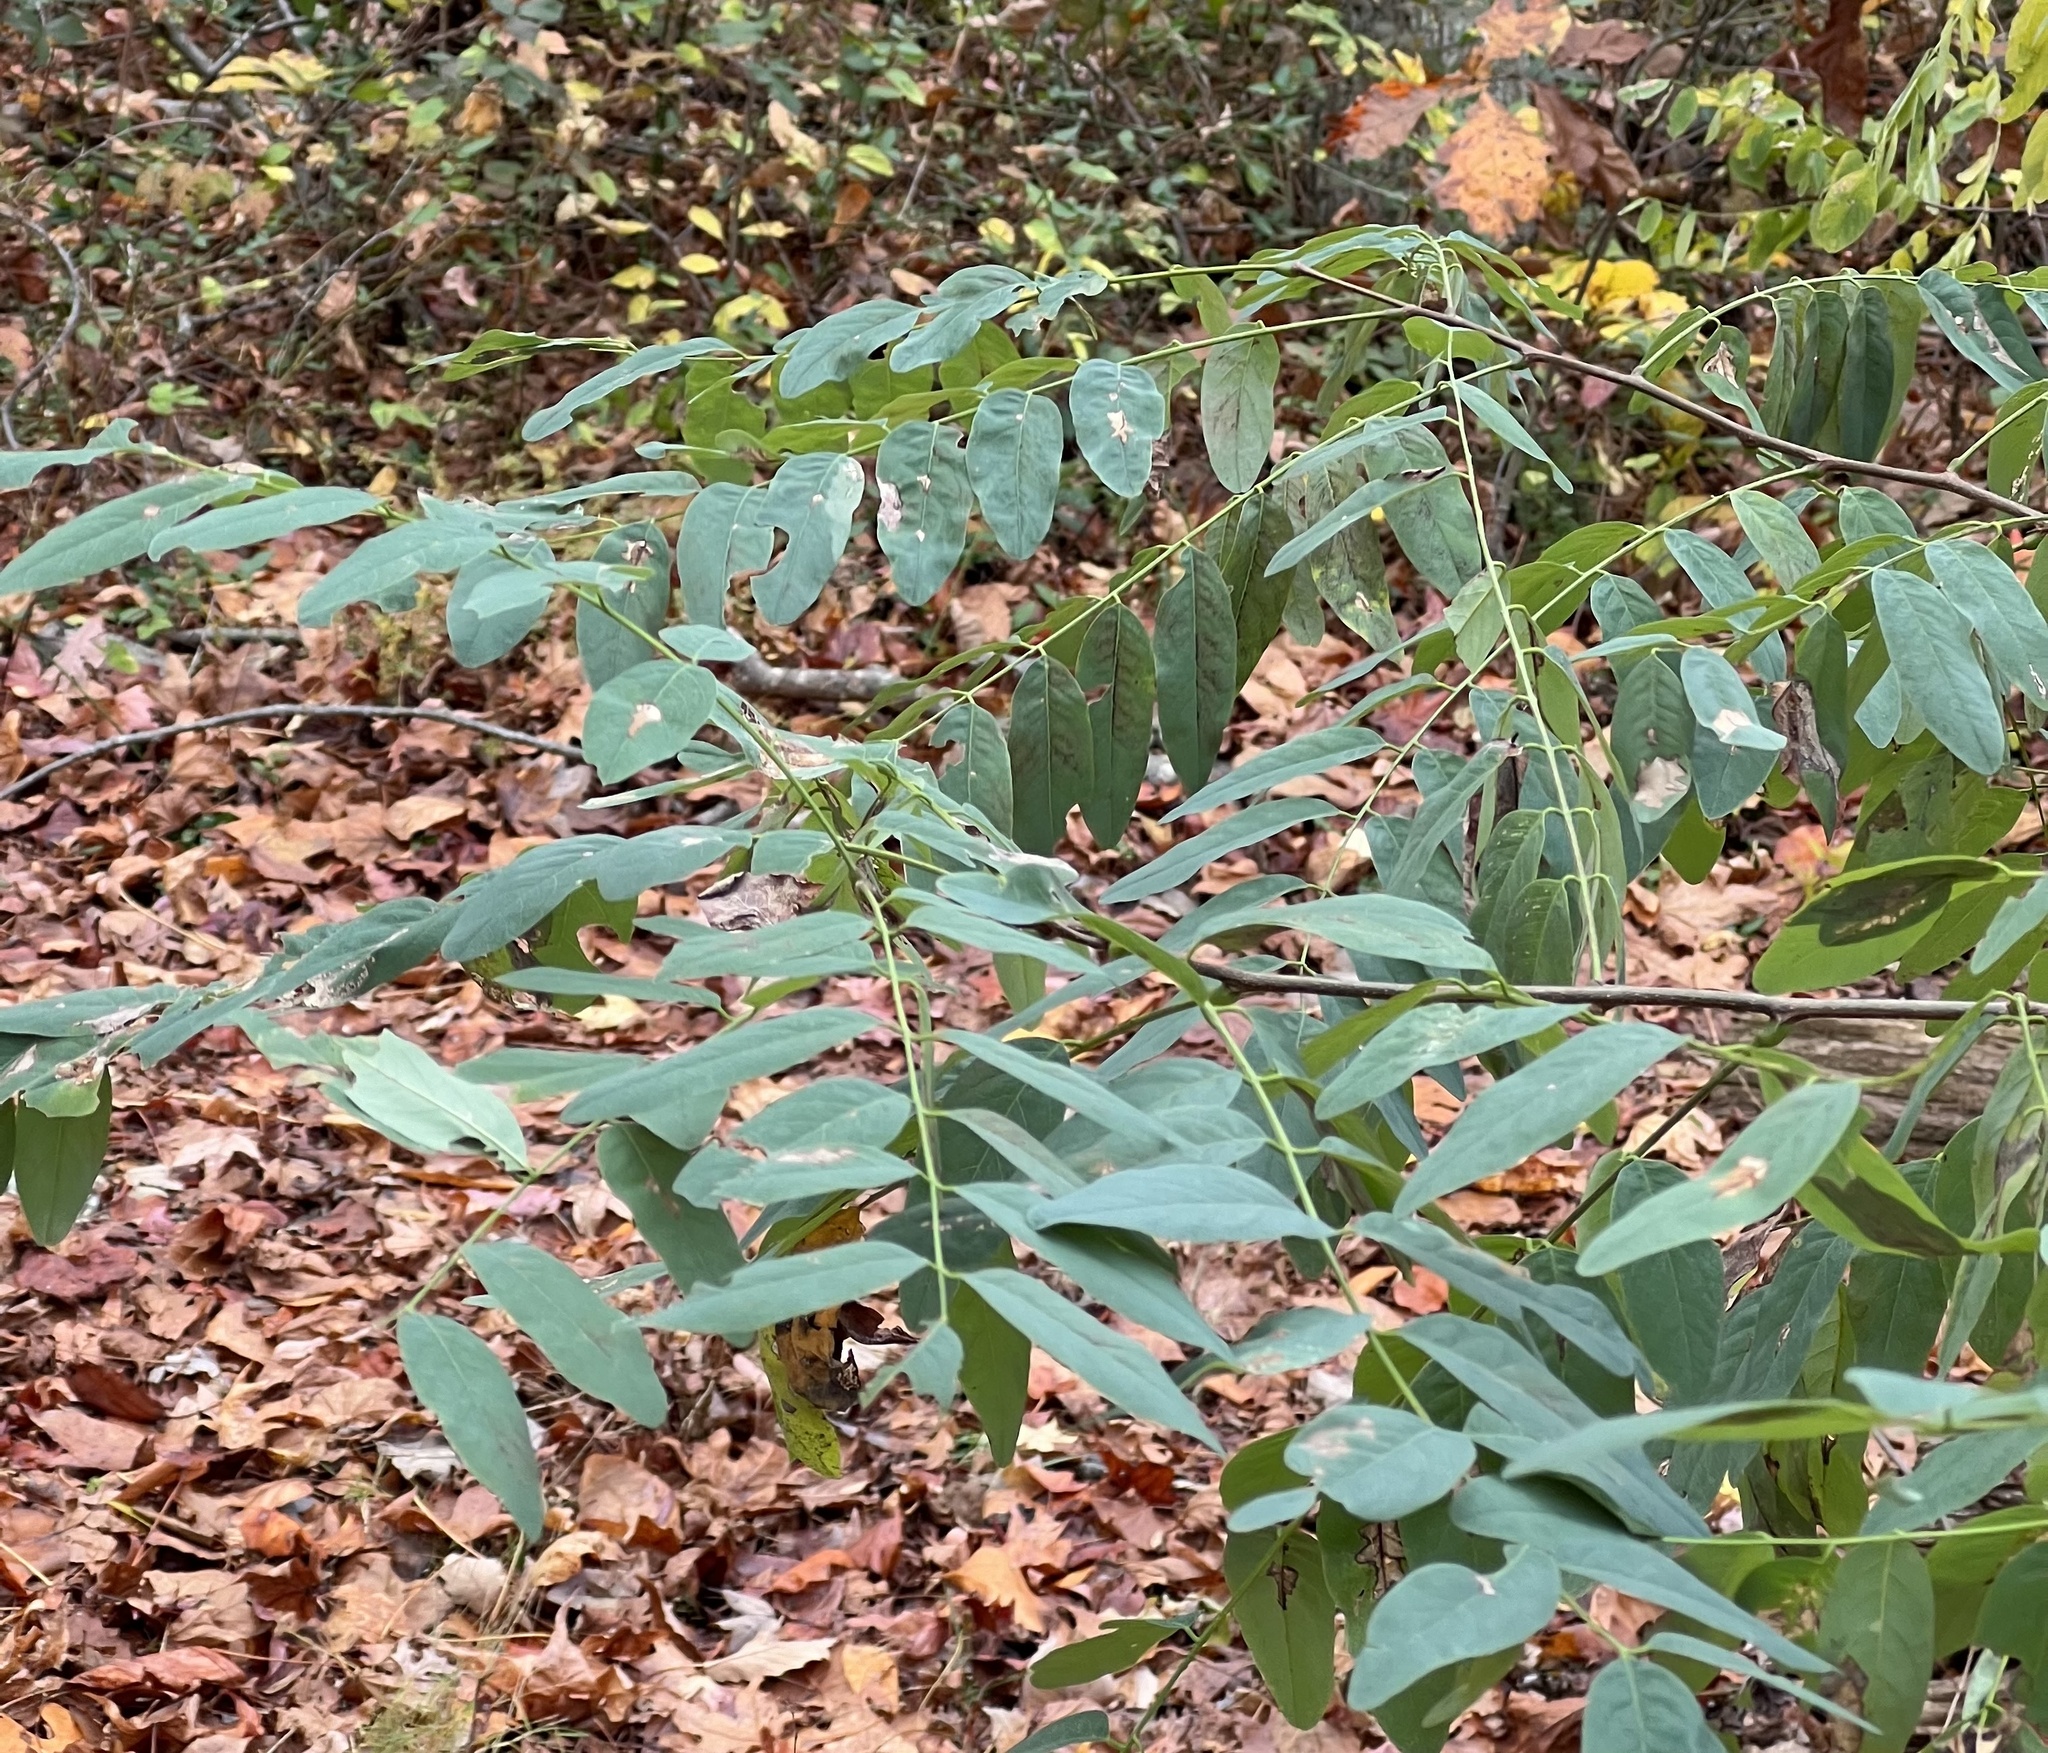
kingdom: Plantae
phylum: Tracheophyta
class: Magnoliopsida
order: Fabales
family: Fabaceae
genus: Robinia
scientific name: Robinia pseudoacacia
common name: Black locust
